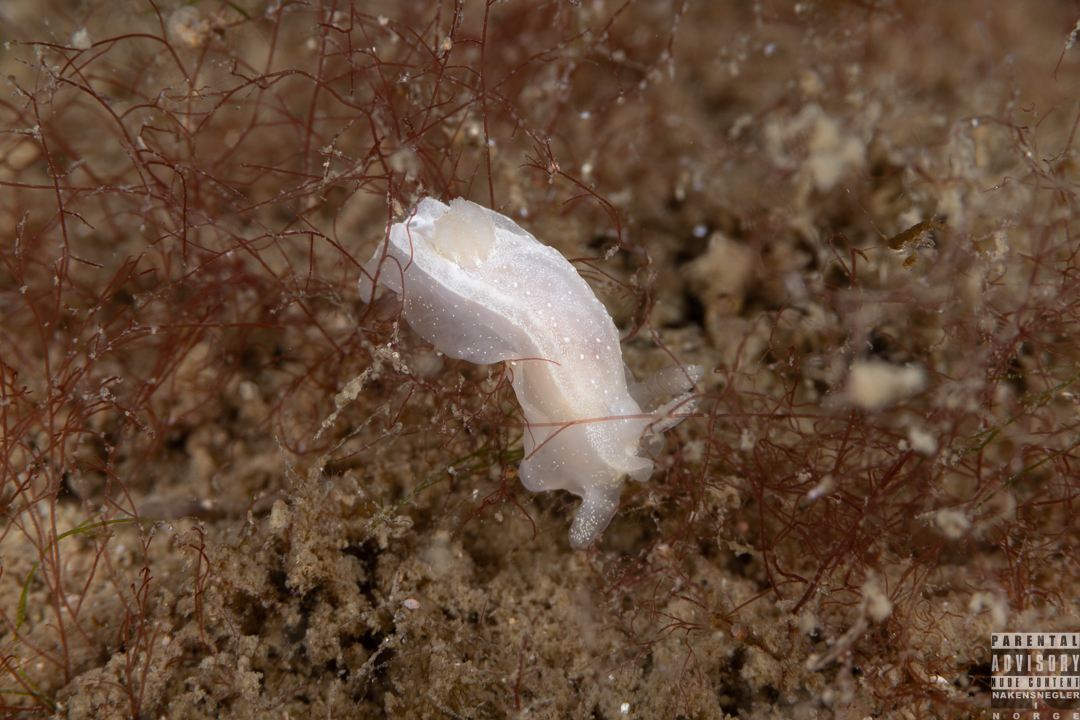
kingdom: Animalia
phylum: Mollusca
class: Gastropoda
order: Nudibranchia
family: Goniodorididae
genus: Okenia
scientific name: Okenia
